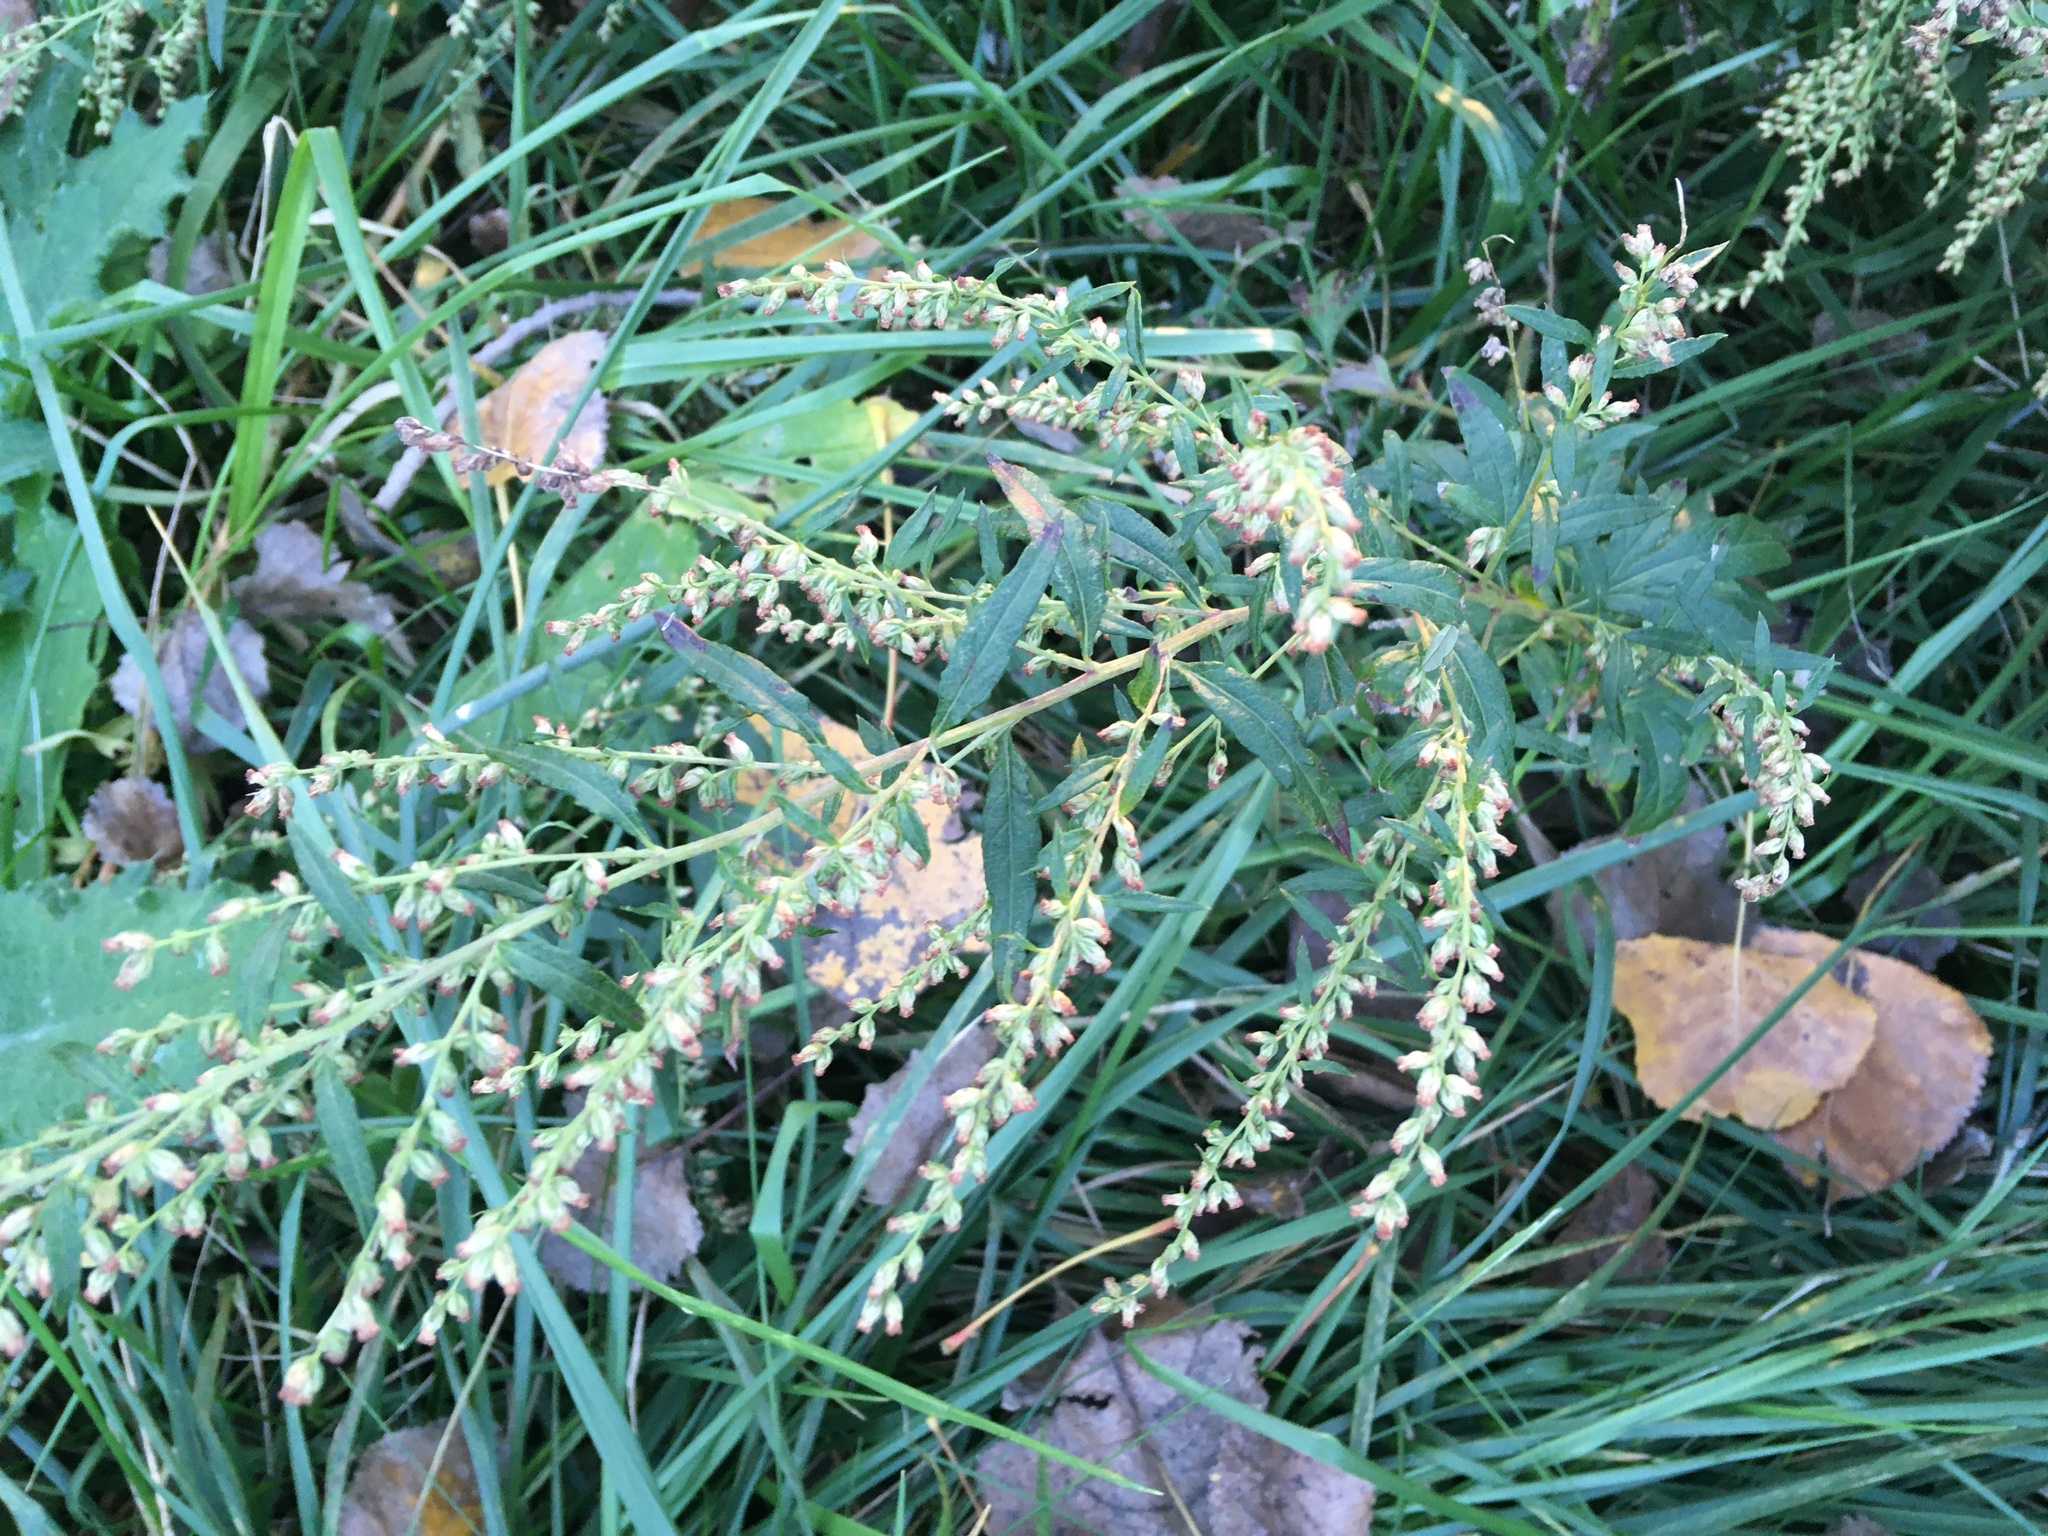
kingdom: Plantae
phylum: Tracheophyta
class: Magnoliopsida
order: Asterales
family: Asteraceae
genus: Artemisia
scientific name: Artemisia vulgaris
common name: Mugwort
